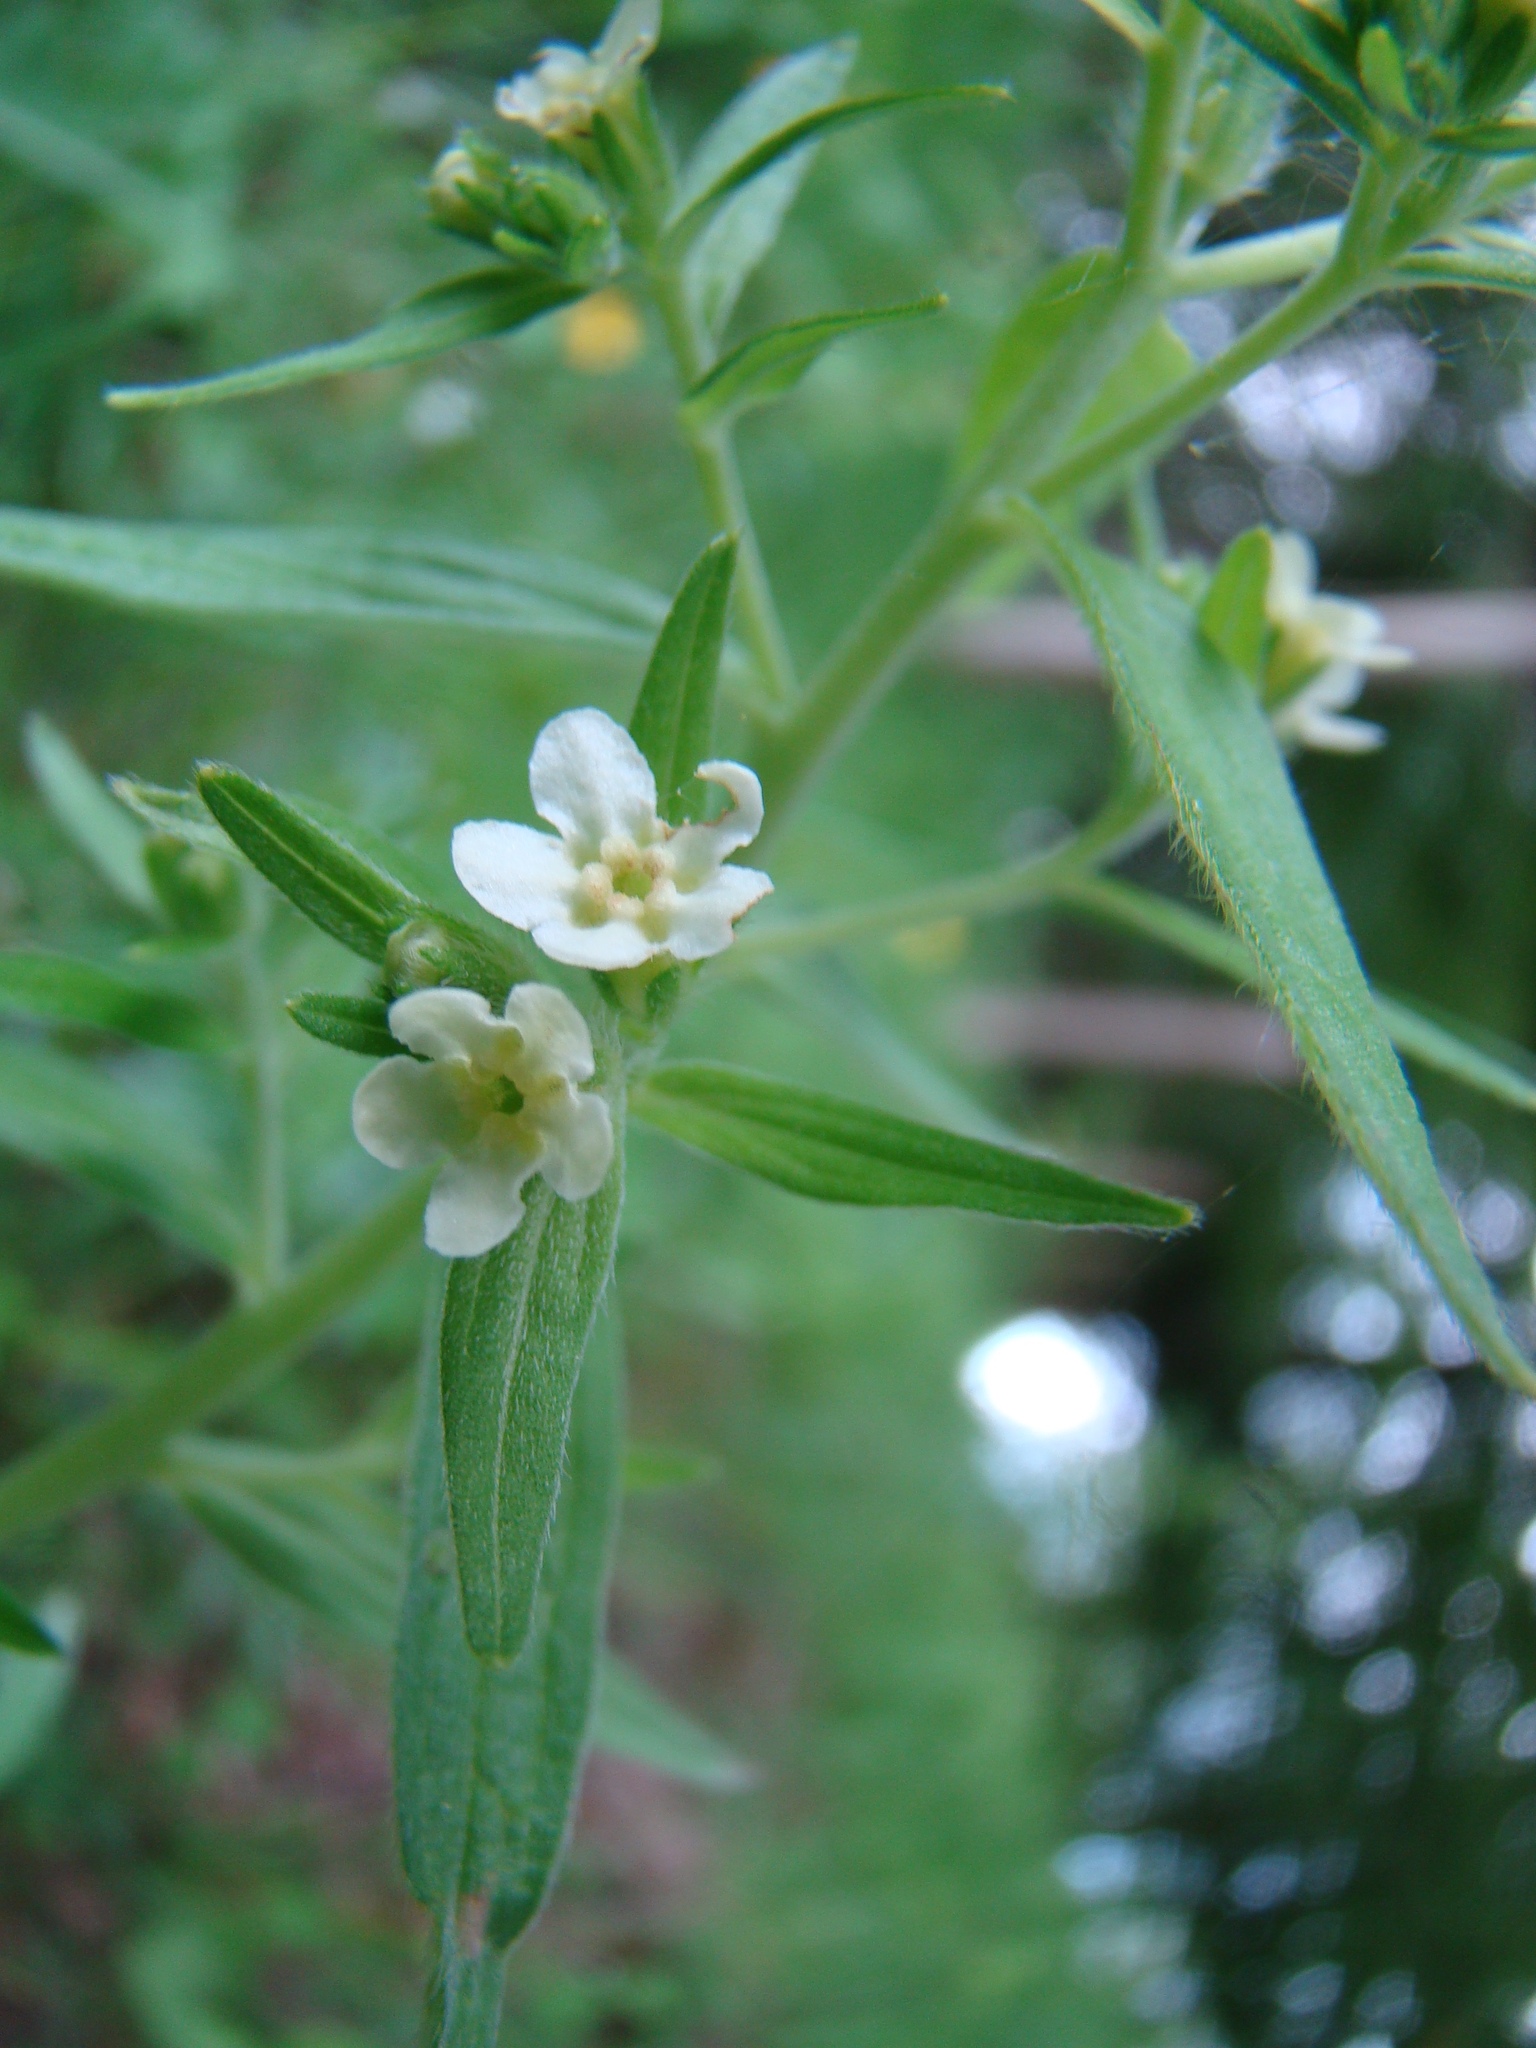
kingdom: Plantae
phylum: Tracheophyta
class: Magnoliopsida
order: Boraginales
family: Boraginaceae
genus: Lithospermum
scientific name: Lithospermum officinale
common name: Common gromwell
